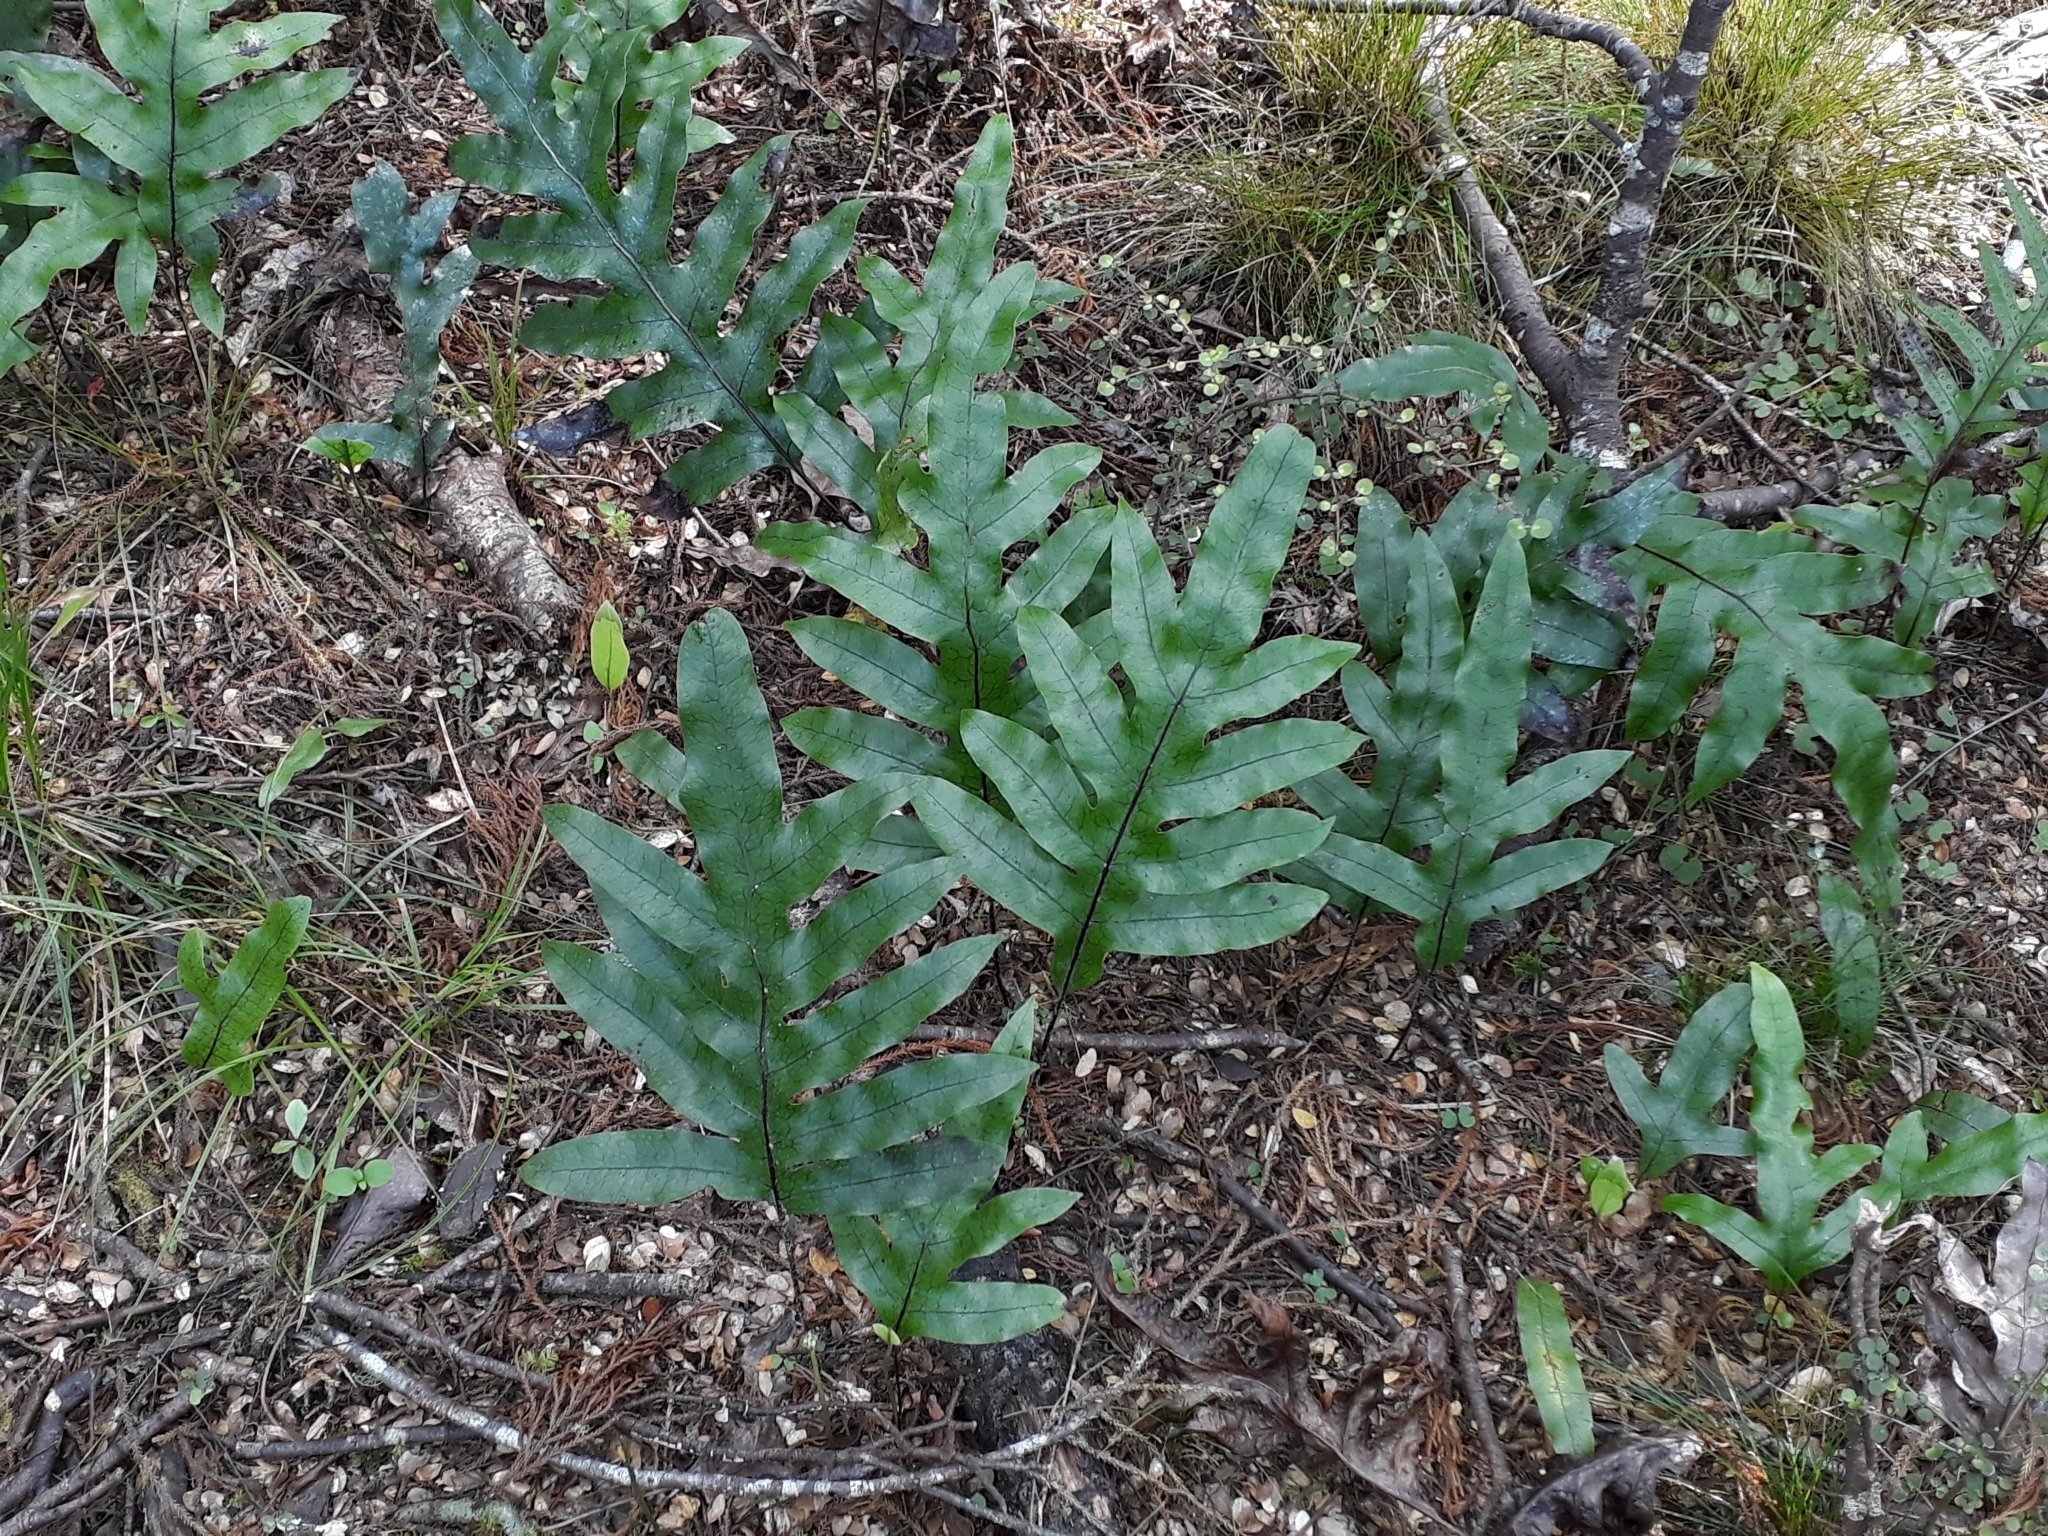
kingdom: Plantae
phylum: Tracheophyta
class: Polypodiopsida
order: Polypodiales
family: Polypodiaceae
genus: Lecanopteris
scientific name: Lecanopteris pustulata
